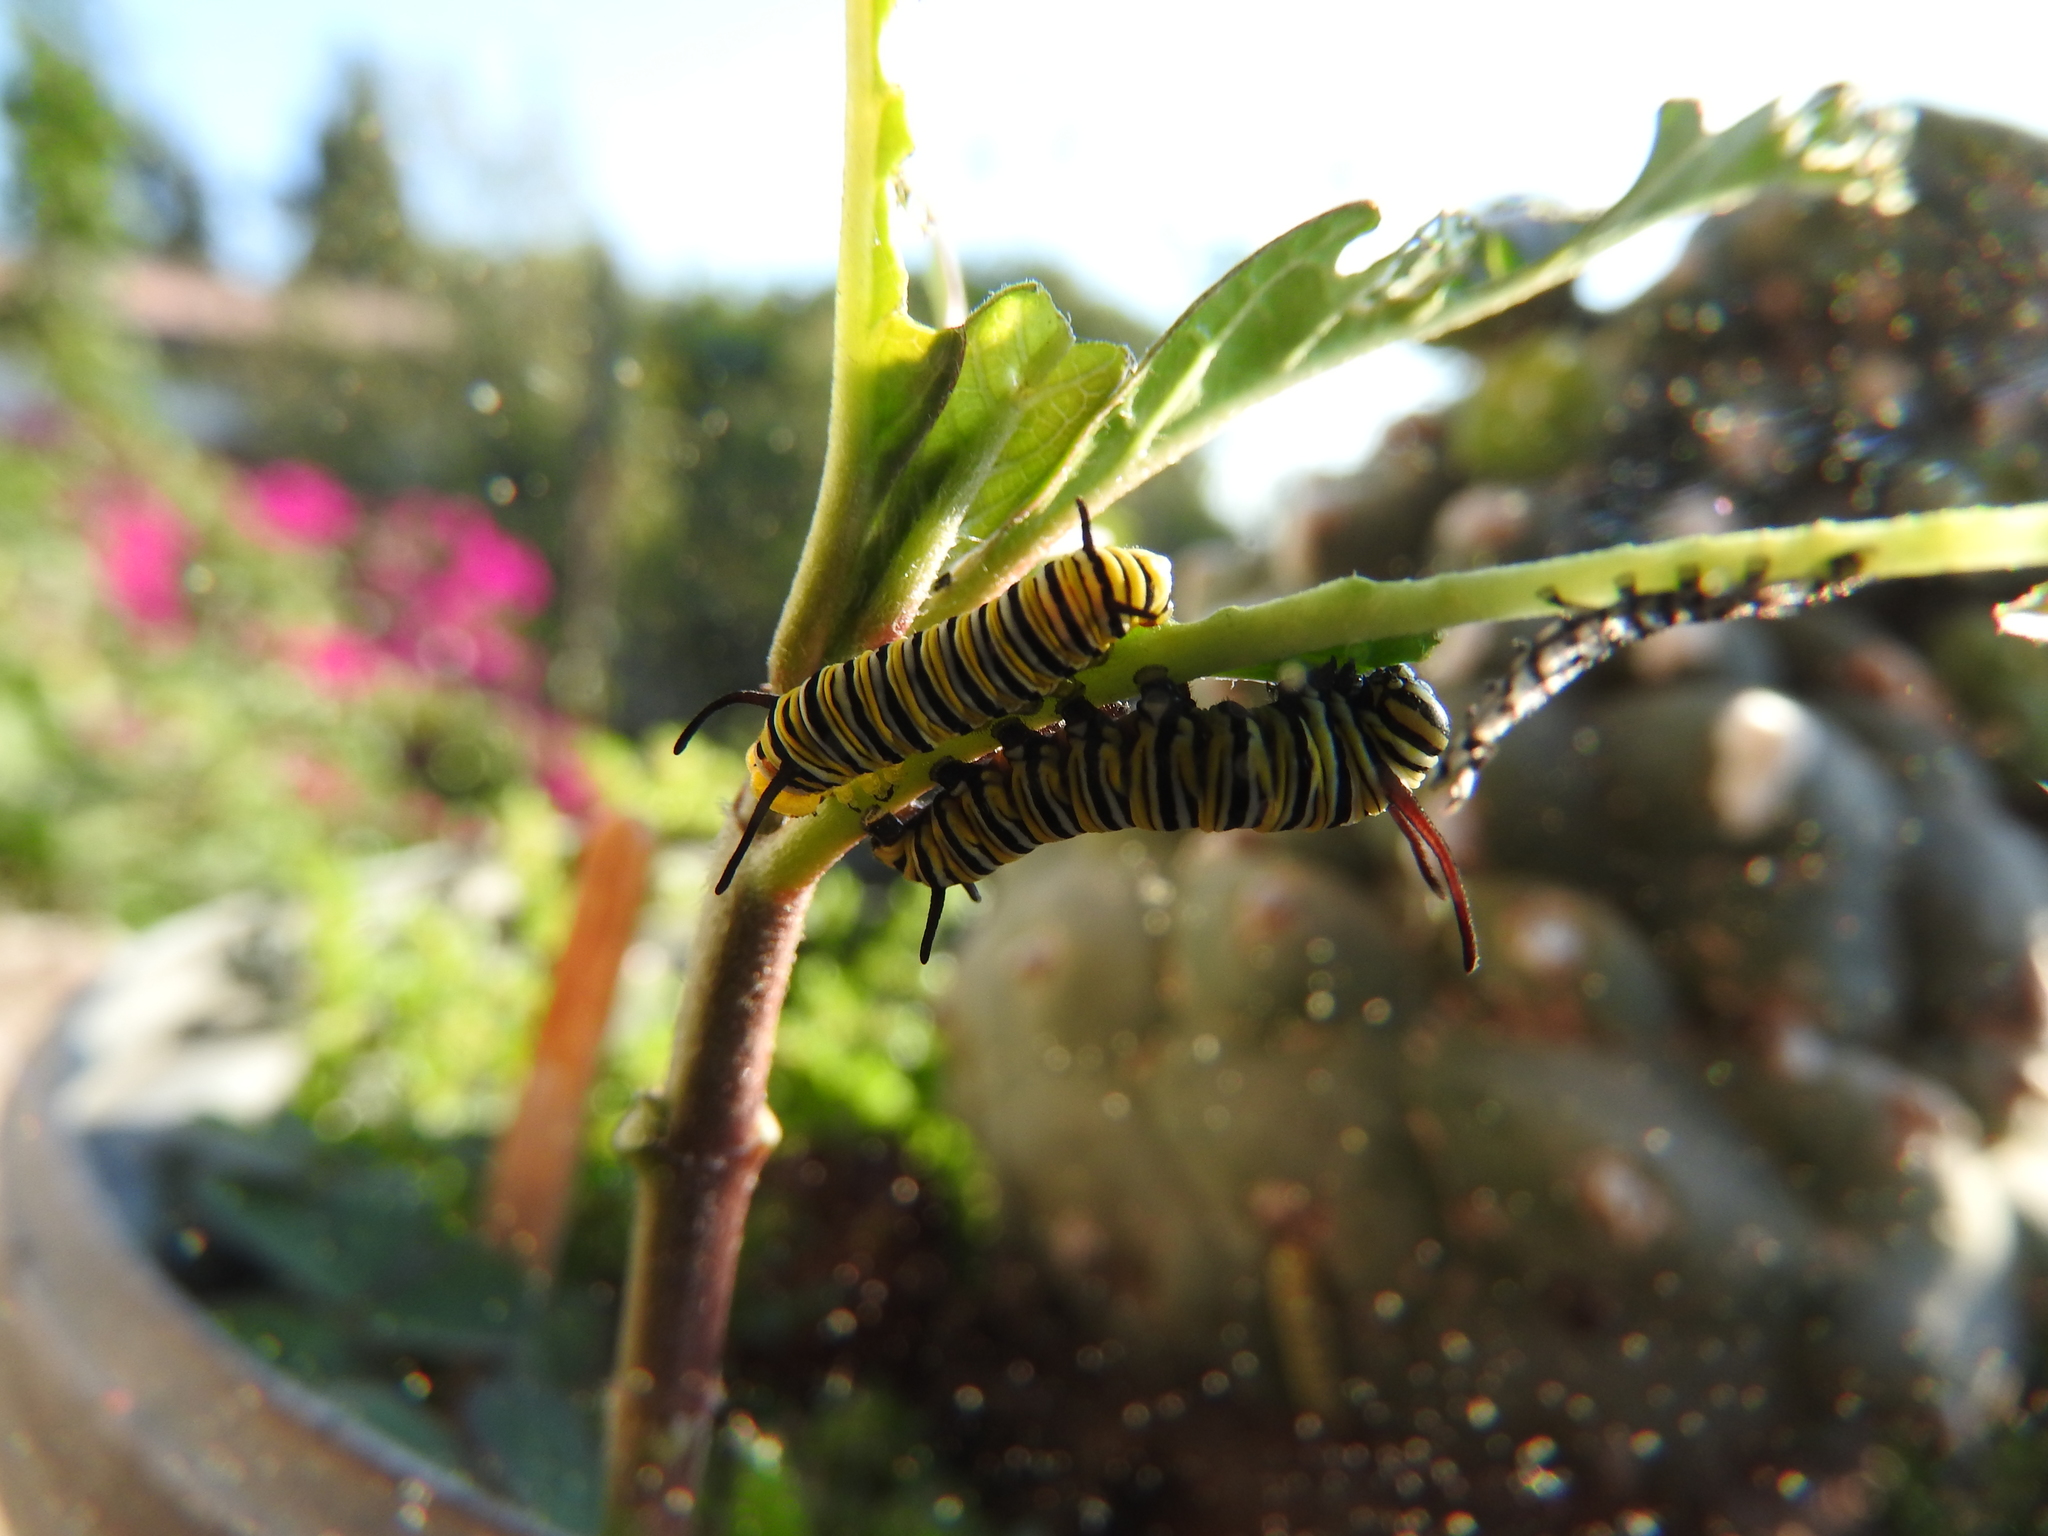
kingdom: Animalia
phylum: Arthropoda
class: Insecta
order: Lepidoptera
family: Nymphalidae
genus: Danaus
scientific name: Danaus plexippus
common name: Monarch
